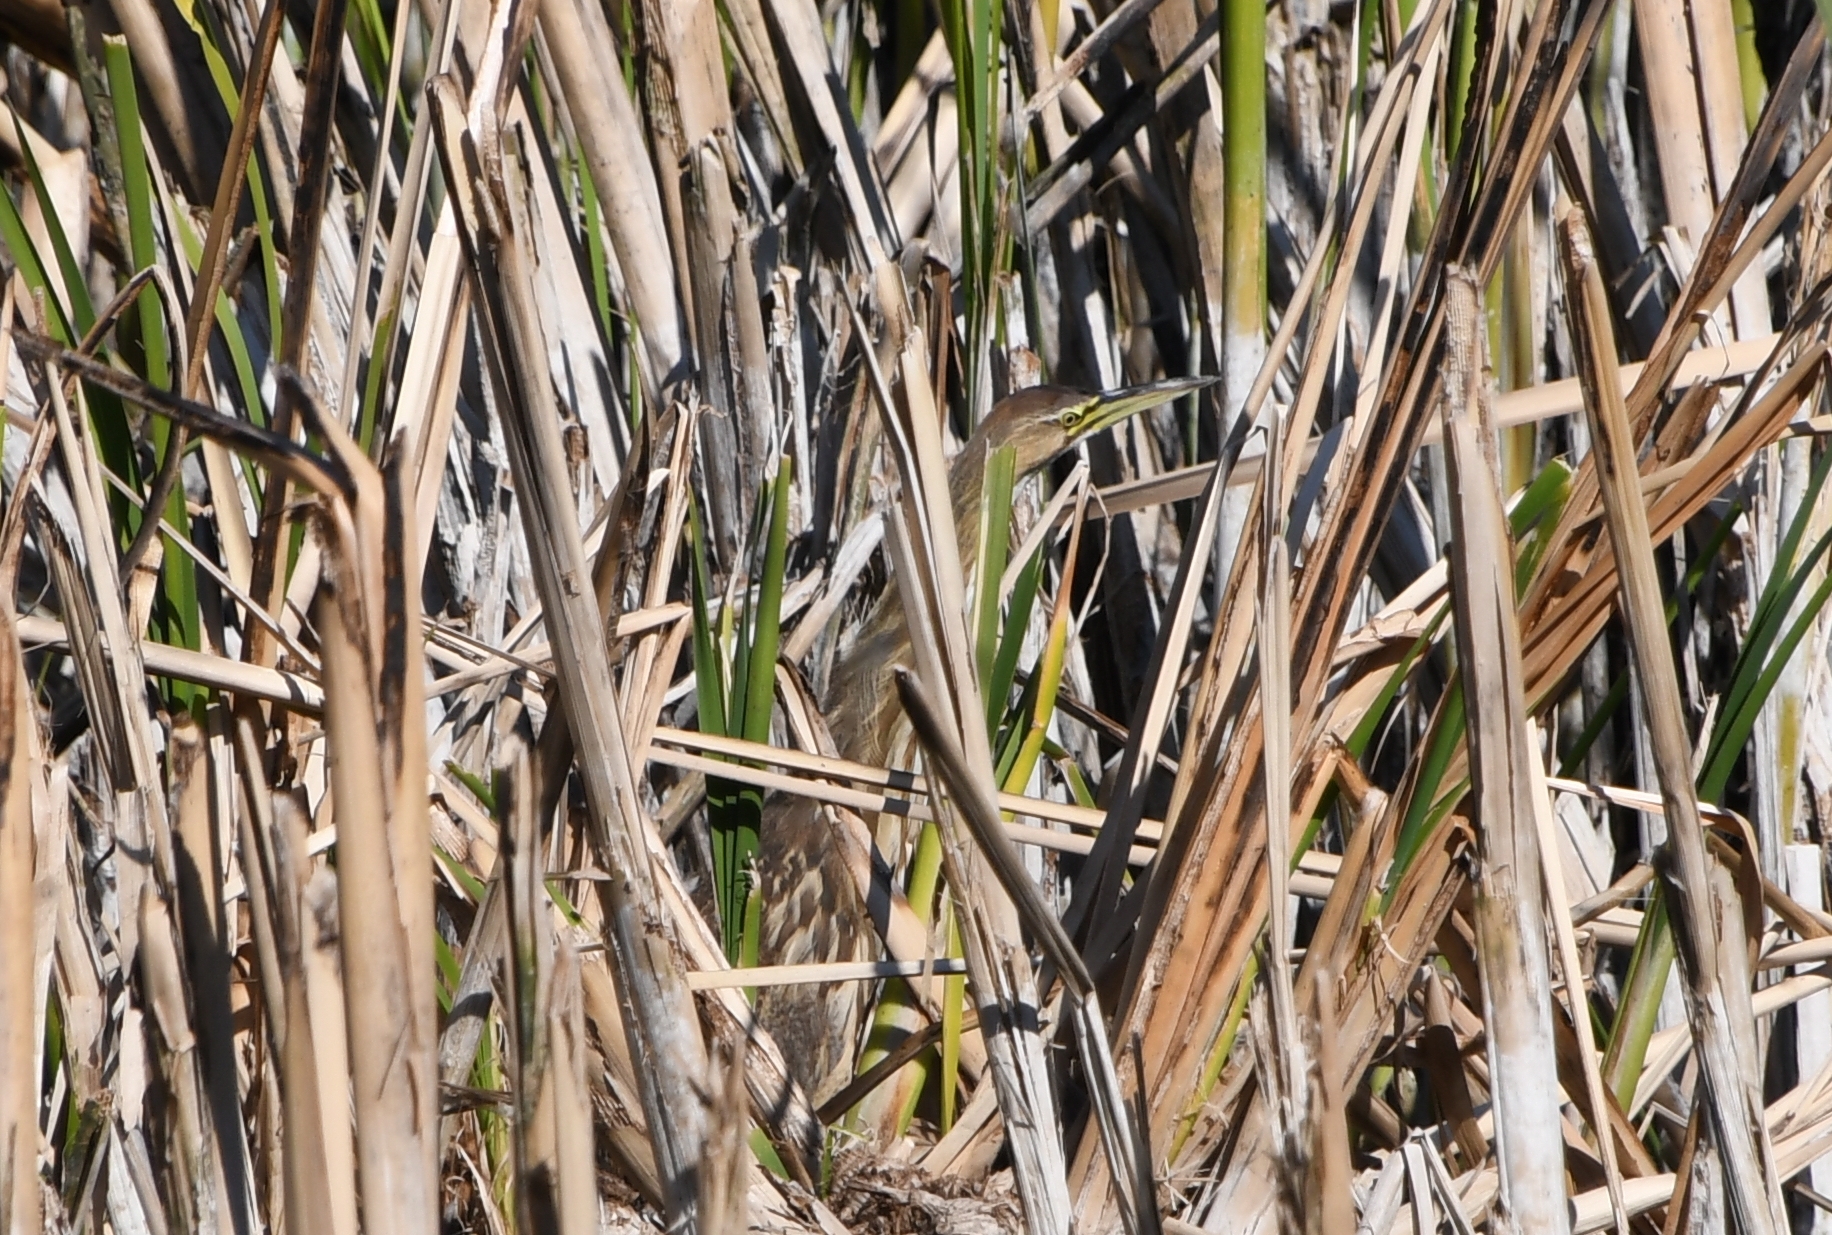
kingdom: Animalia
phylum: Chordata
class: Aves
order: Pelecaniformes
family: Ardeidae
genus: Botaurus
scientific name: Botaurus lentiginosus
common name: American bittern
